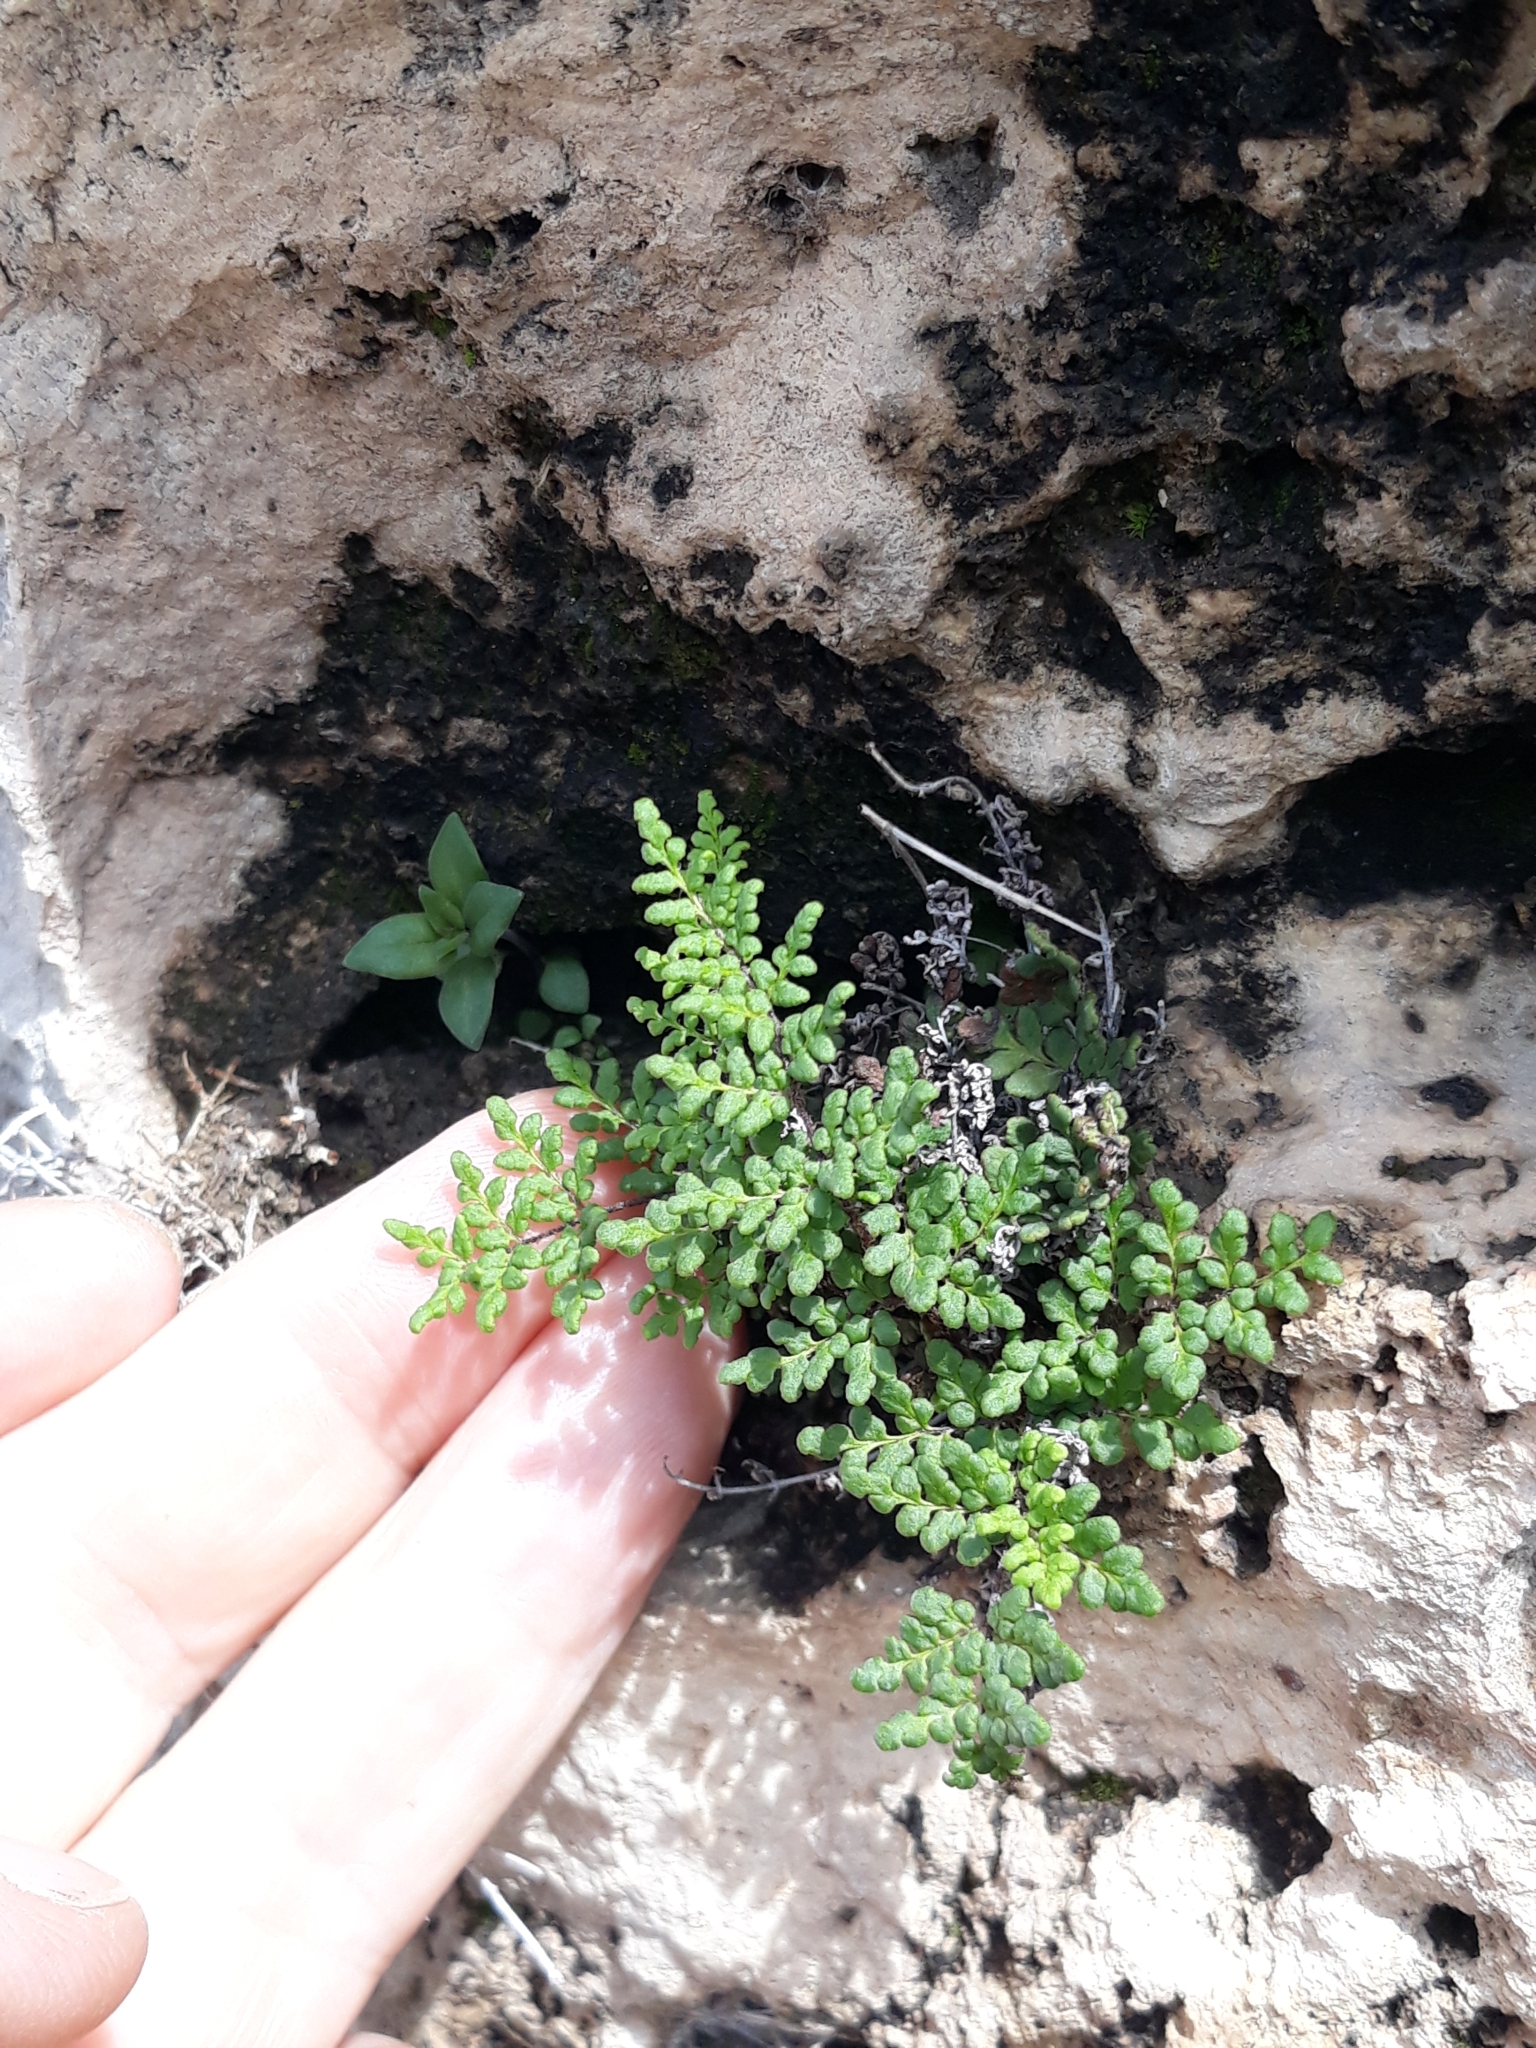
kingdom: Plantae
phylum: Tracheophyta
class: Polypodiopsida
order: Polypodiales
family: Pteridaceae
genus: Oeosporangium
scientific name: Oeosporangium pteridioides
